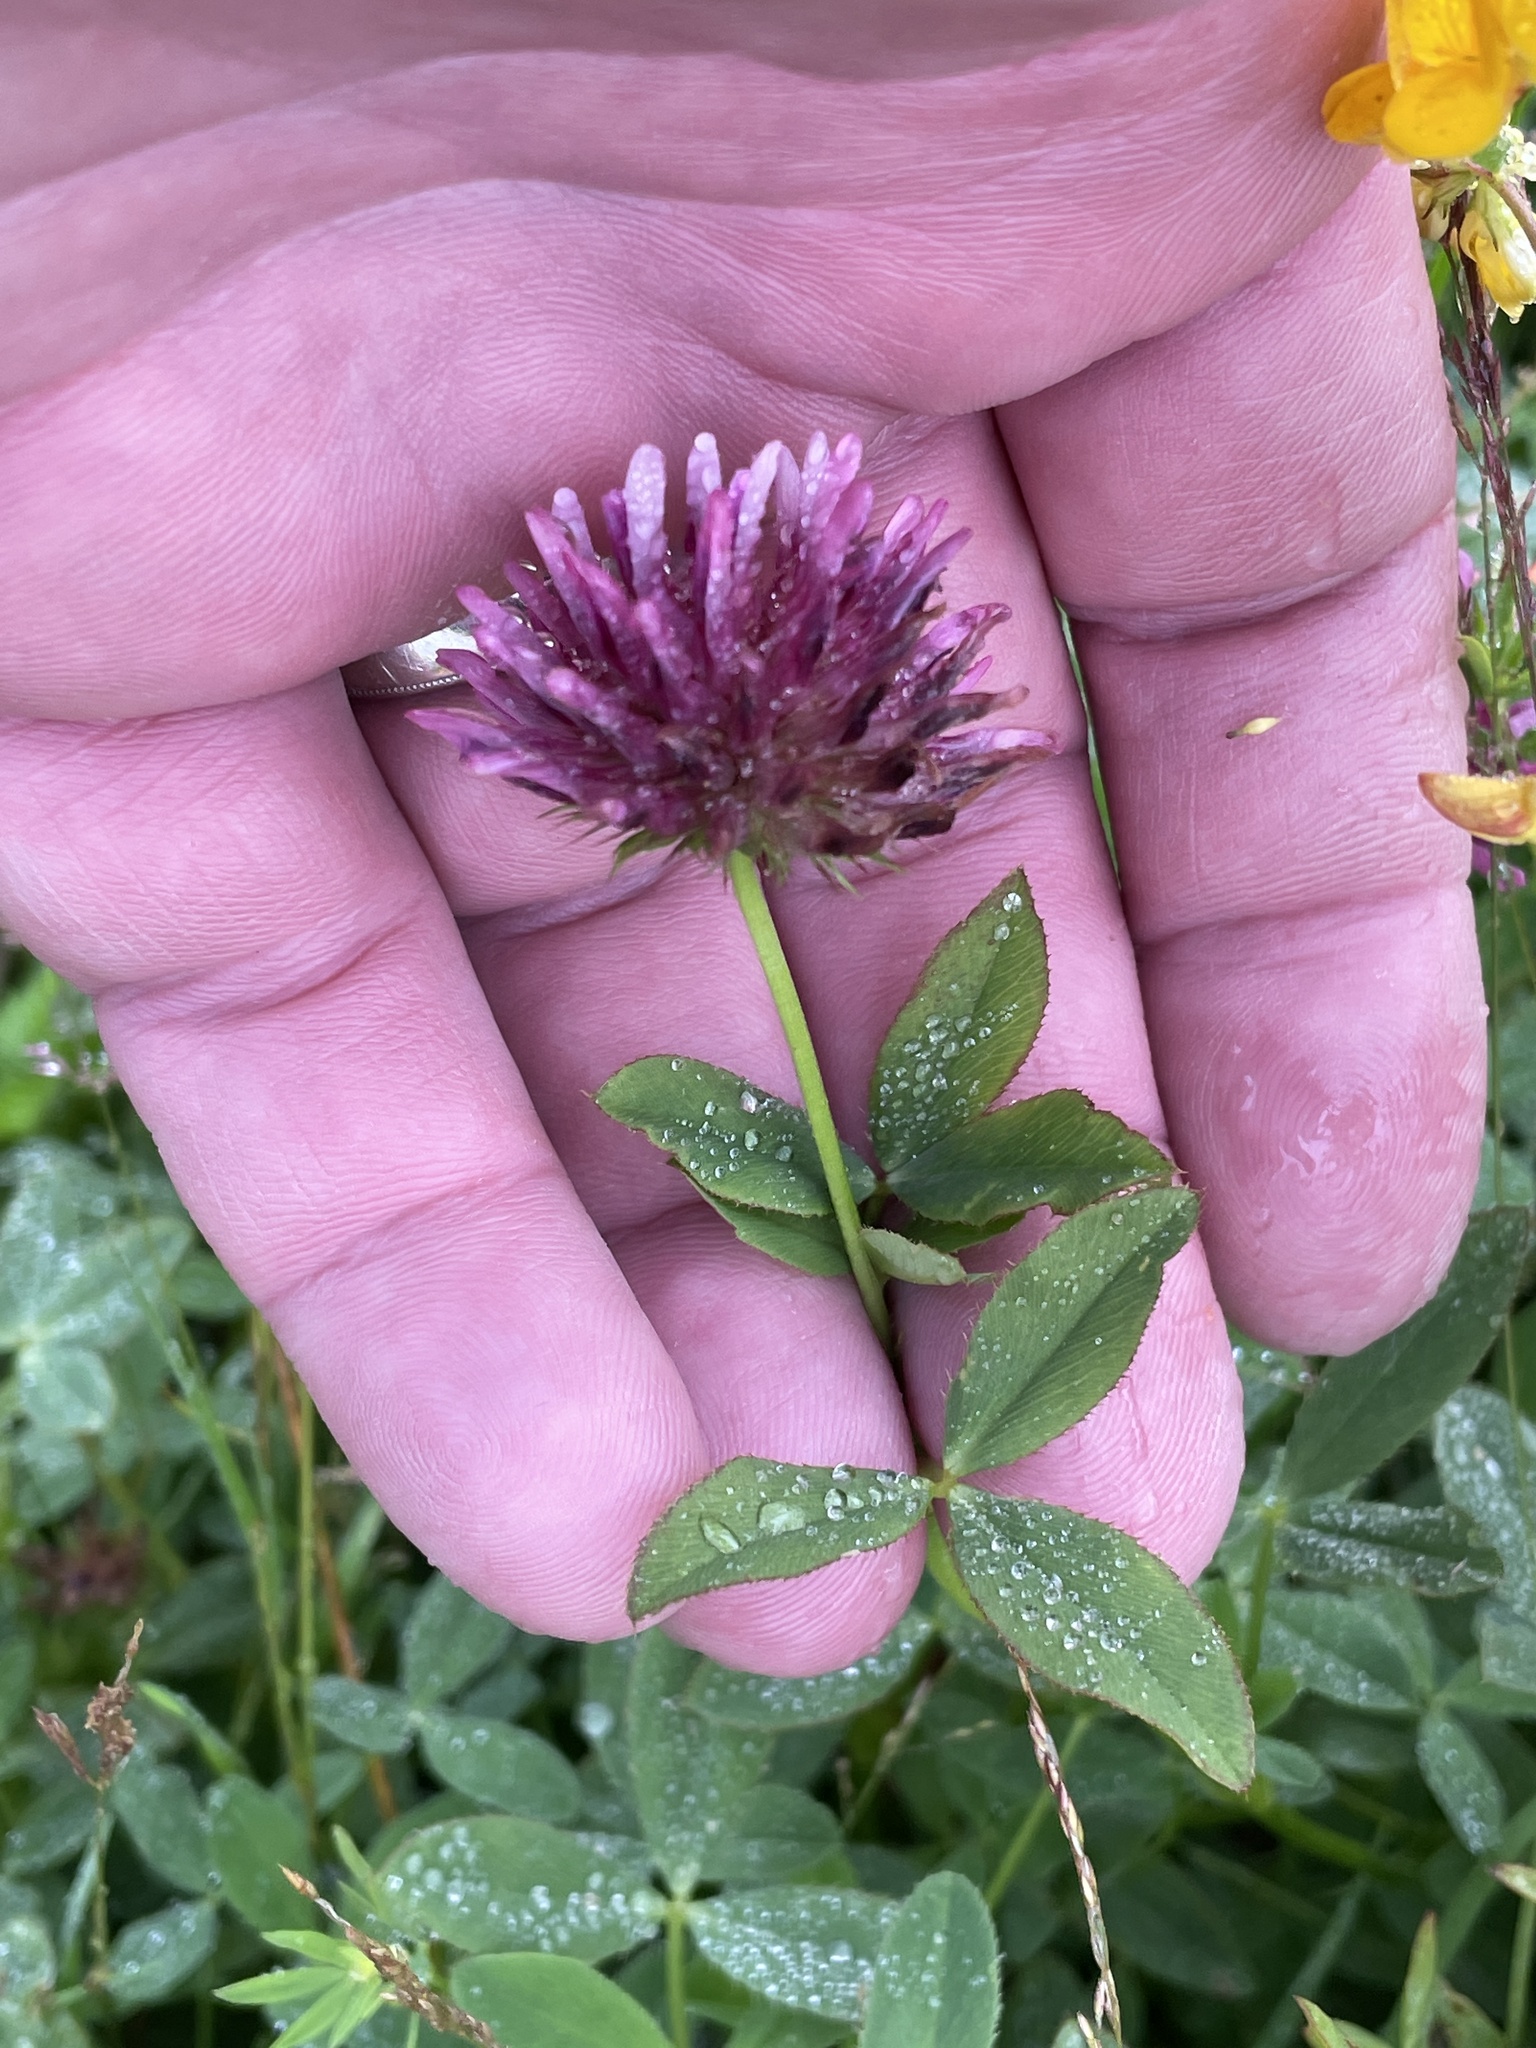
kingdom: Plantae
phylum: Tracheophyta
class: Magnoliopsida
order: Fabales
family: Fabaceae
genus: Trifolium
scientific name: Trifolium wormskioldii
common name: Springbank clover
